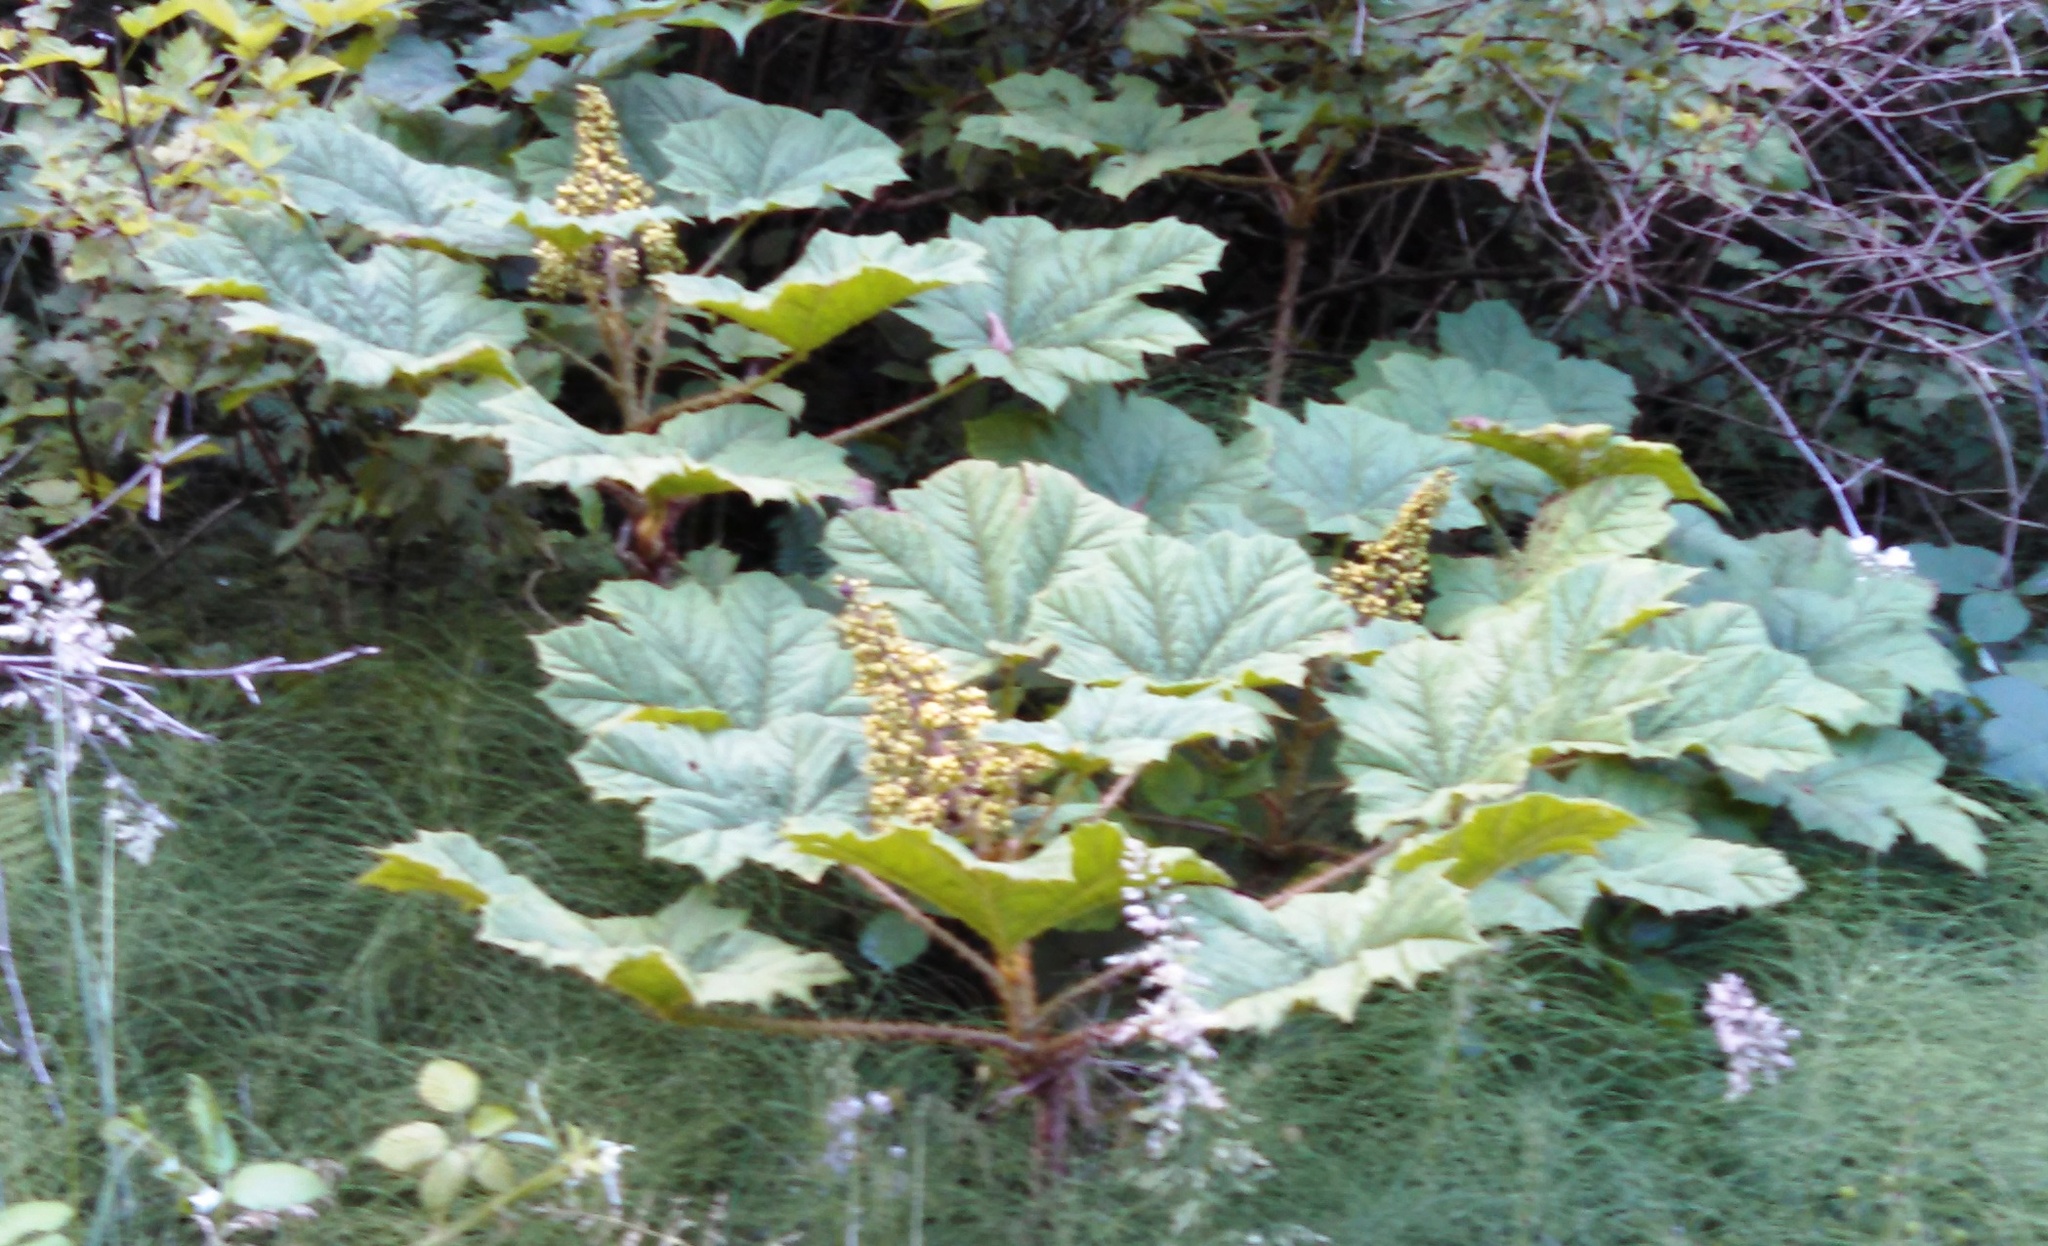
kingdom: Plantae
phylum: Tracheophyta
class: Magnoliopsida
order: Apiales
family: Araliaceae
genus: Oplopanax
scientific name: Oplopanax horridus
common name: Devil's walking-stick
